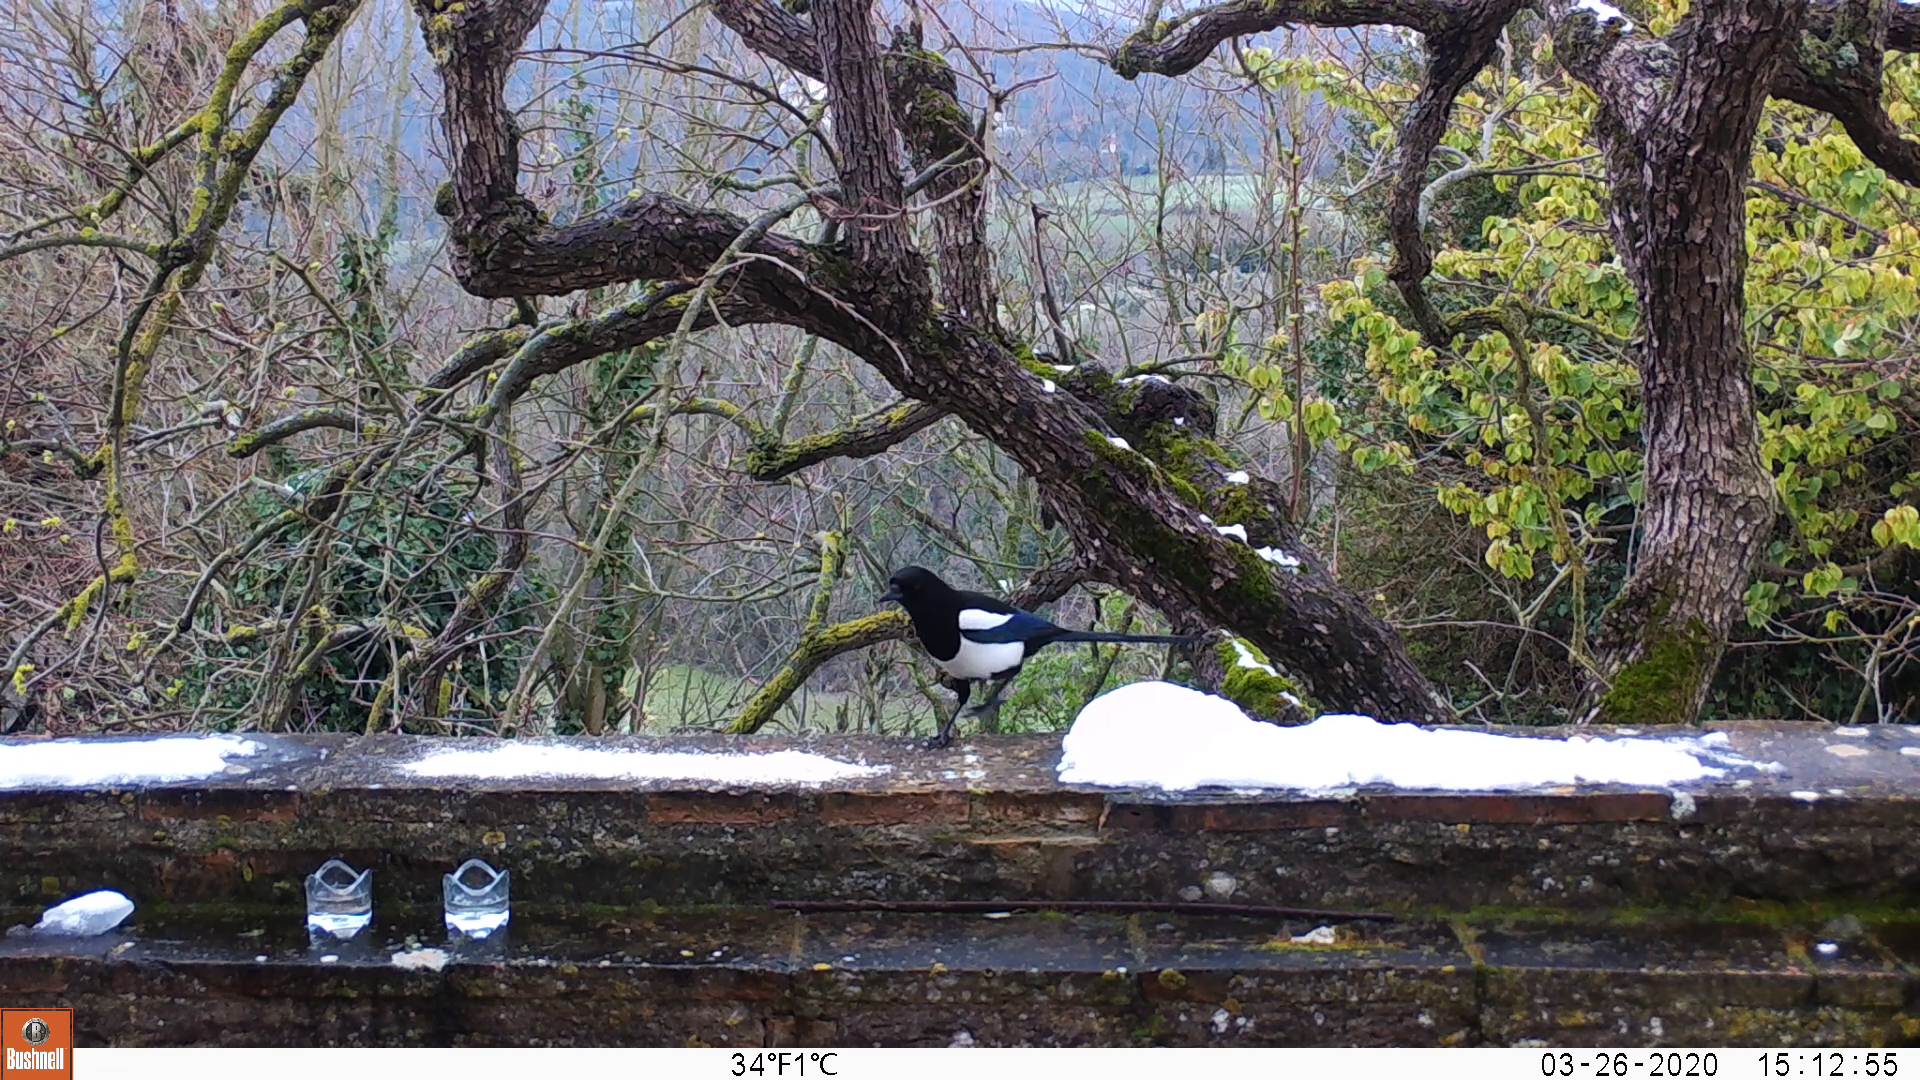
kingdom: Animalia
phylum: Chordata
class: Aves
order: Passeriformes
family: Corvidae
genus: Pica
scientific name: Pica pica
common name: Eurasian magpie
